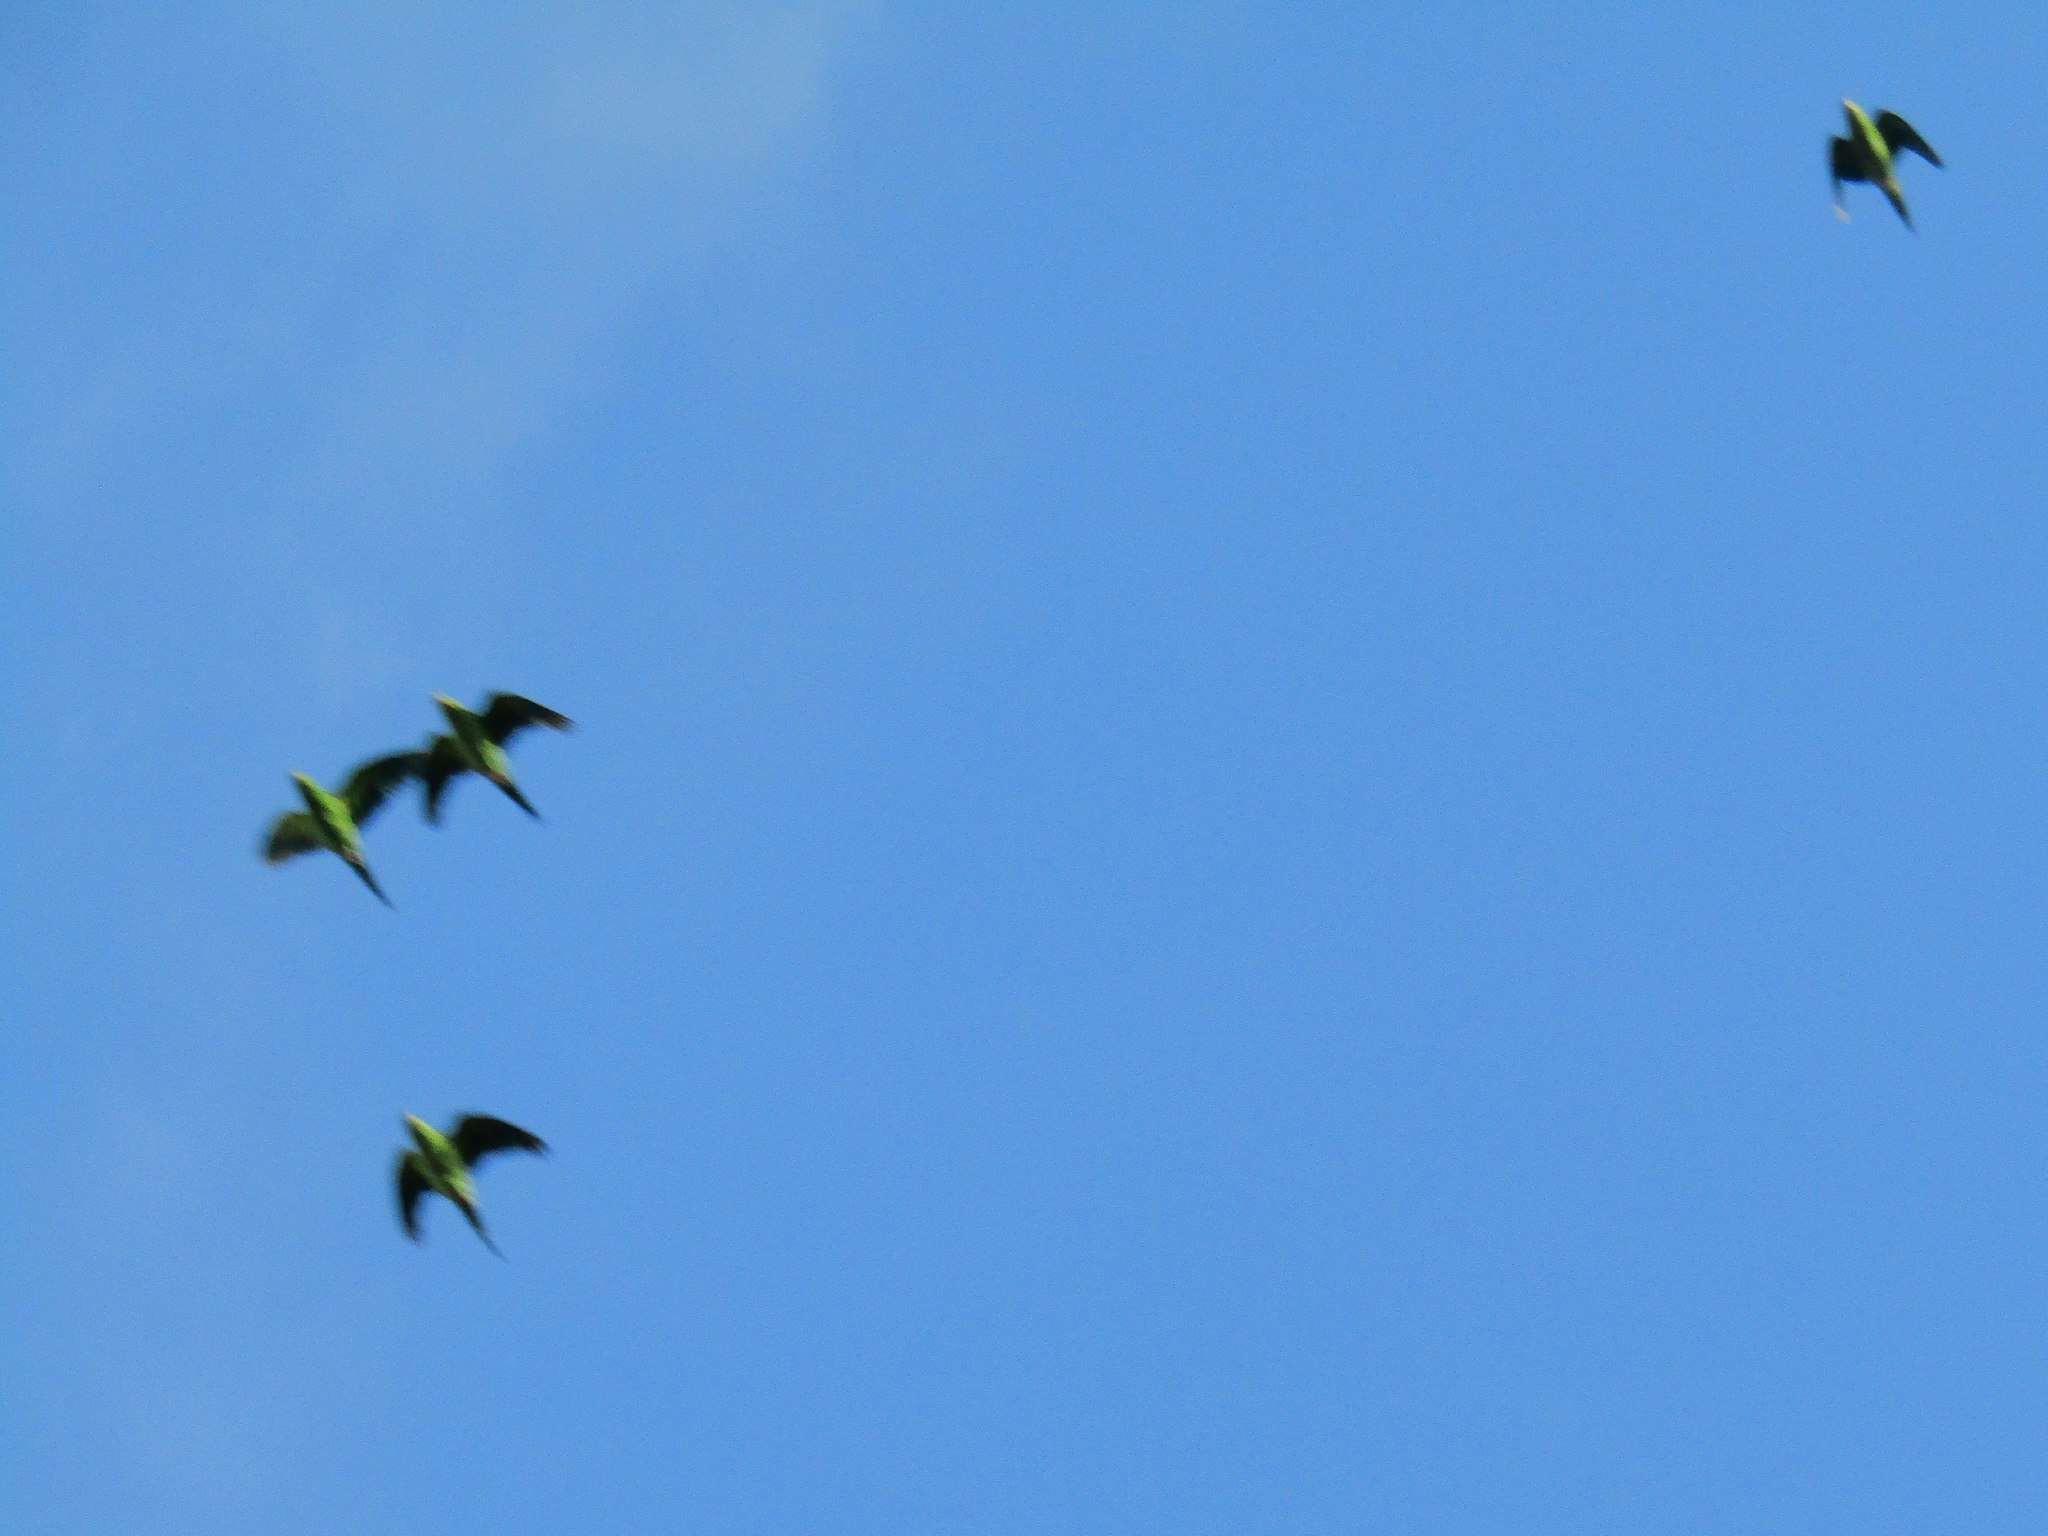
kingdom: Animalia
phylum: Chordata
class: Aves
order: Psittaciformes
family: Psittacidae
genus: Brotogeris
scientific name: Brotogeris chiriri
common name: Yellow-chevroned parakeet
